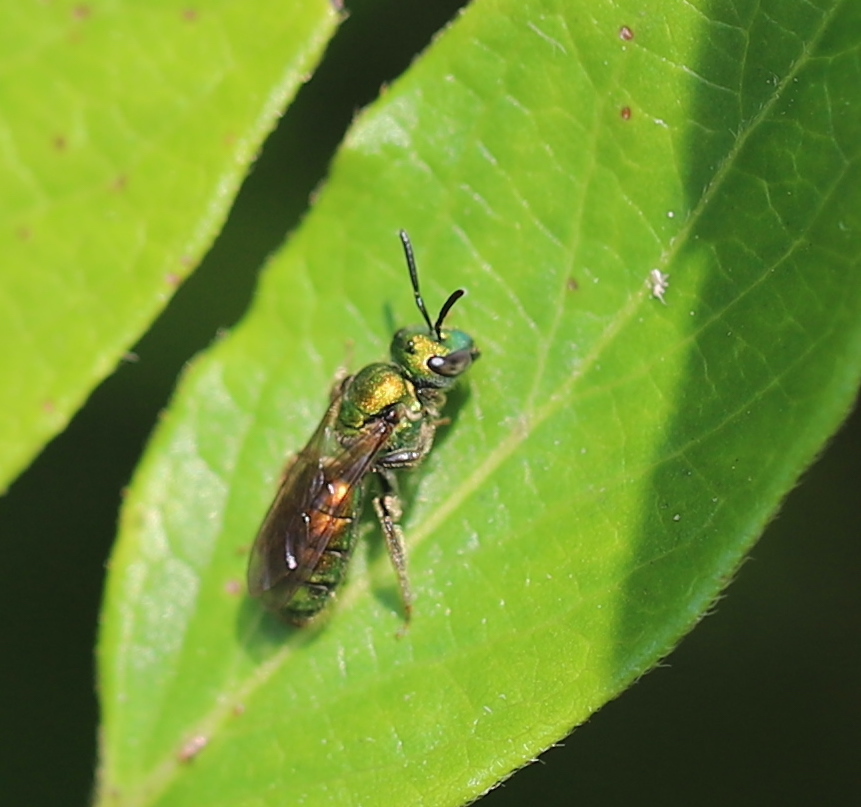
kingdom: Animalia
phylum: Arthropoda
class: Insecta
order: Hymenoptera
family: Halictidae
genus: Augochlora
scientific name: Augochlora pura
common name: Pure green sweat bee
